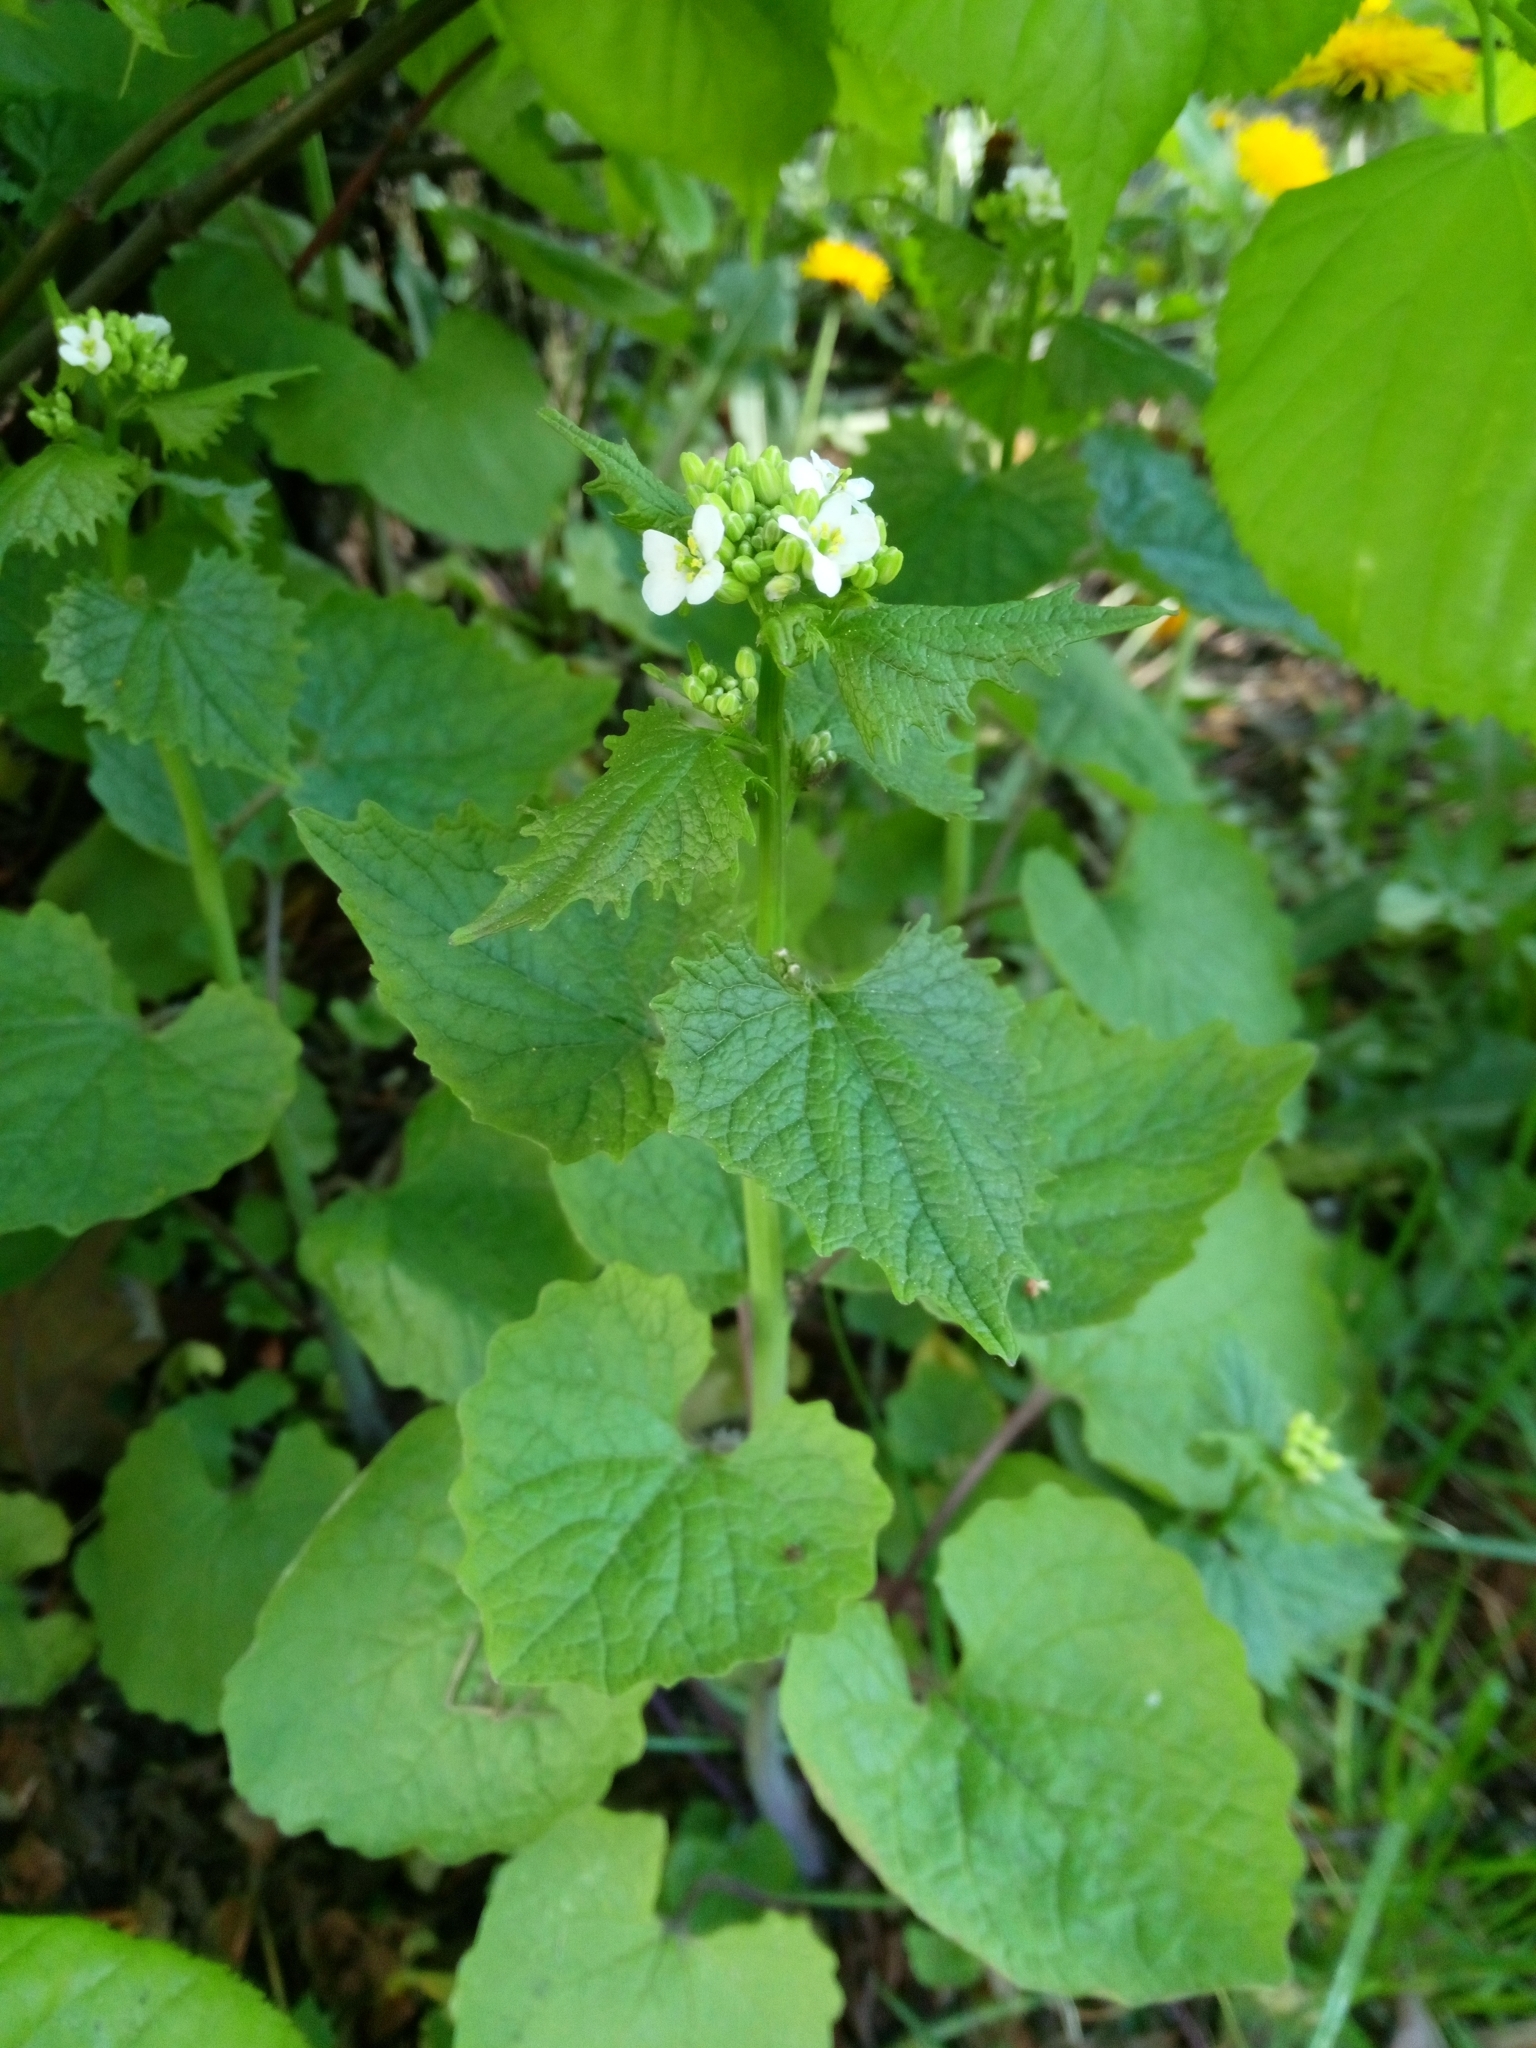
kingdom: Plantae
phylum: Tracheophyta
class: Magnoliopsida
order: Brassicales
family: Brassicaceae
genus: Alliaria
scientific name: Alliaria petiolata
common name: Garlic mustard
